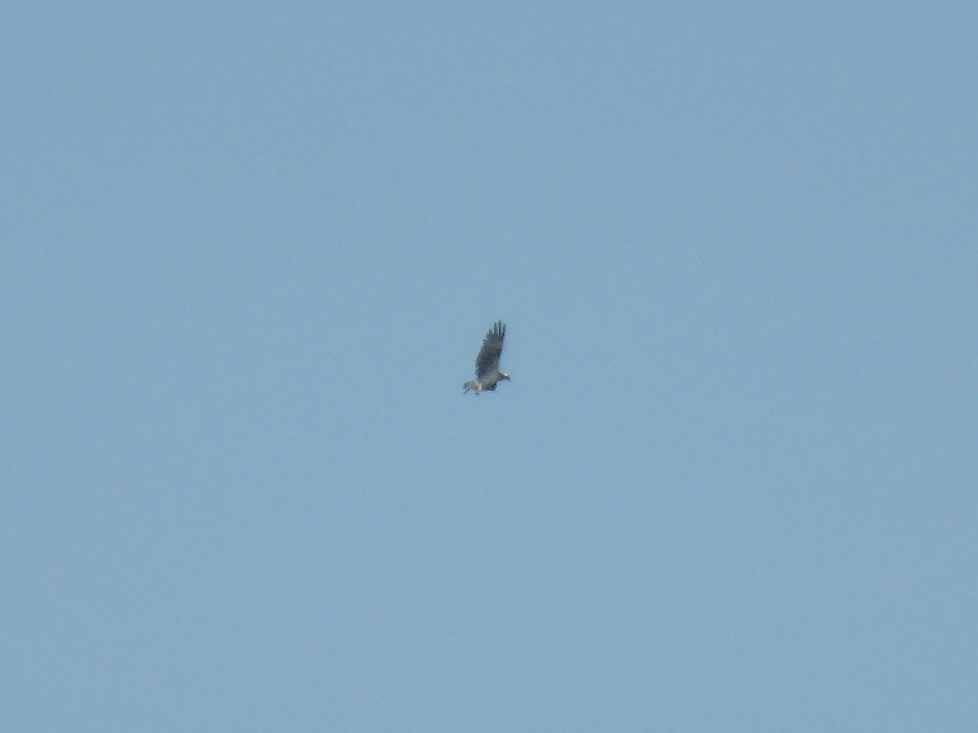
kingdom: Animalia
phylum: Chordata
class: Aves
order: Accipitriformes
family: Pandionidae
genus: Pandion
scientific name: Pandion haliaetus
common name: Osprey
